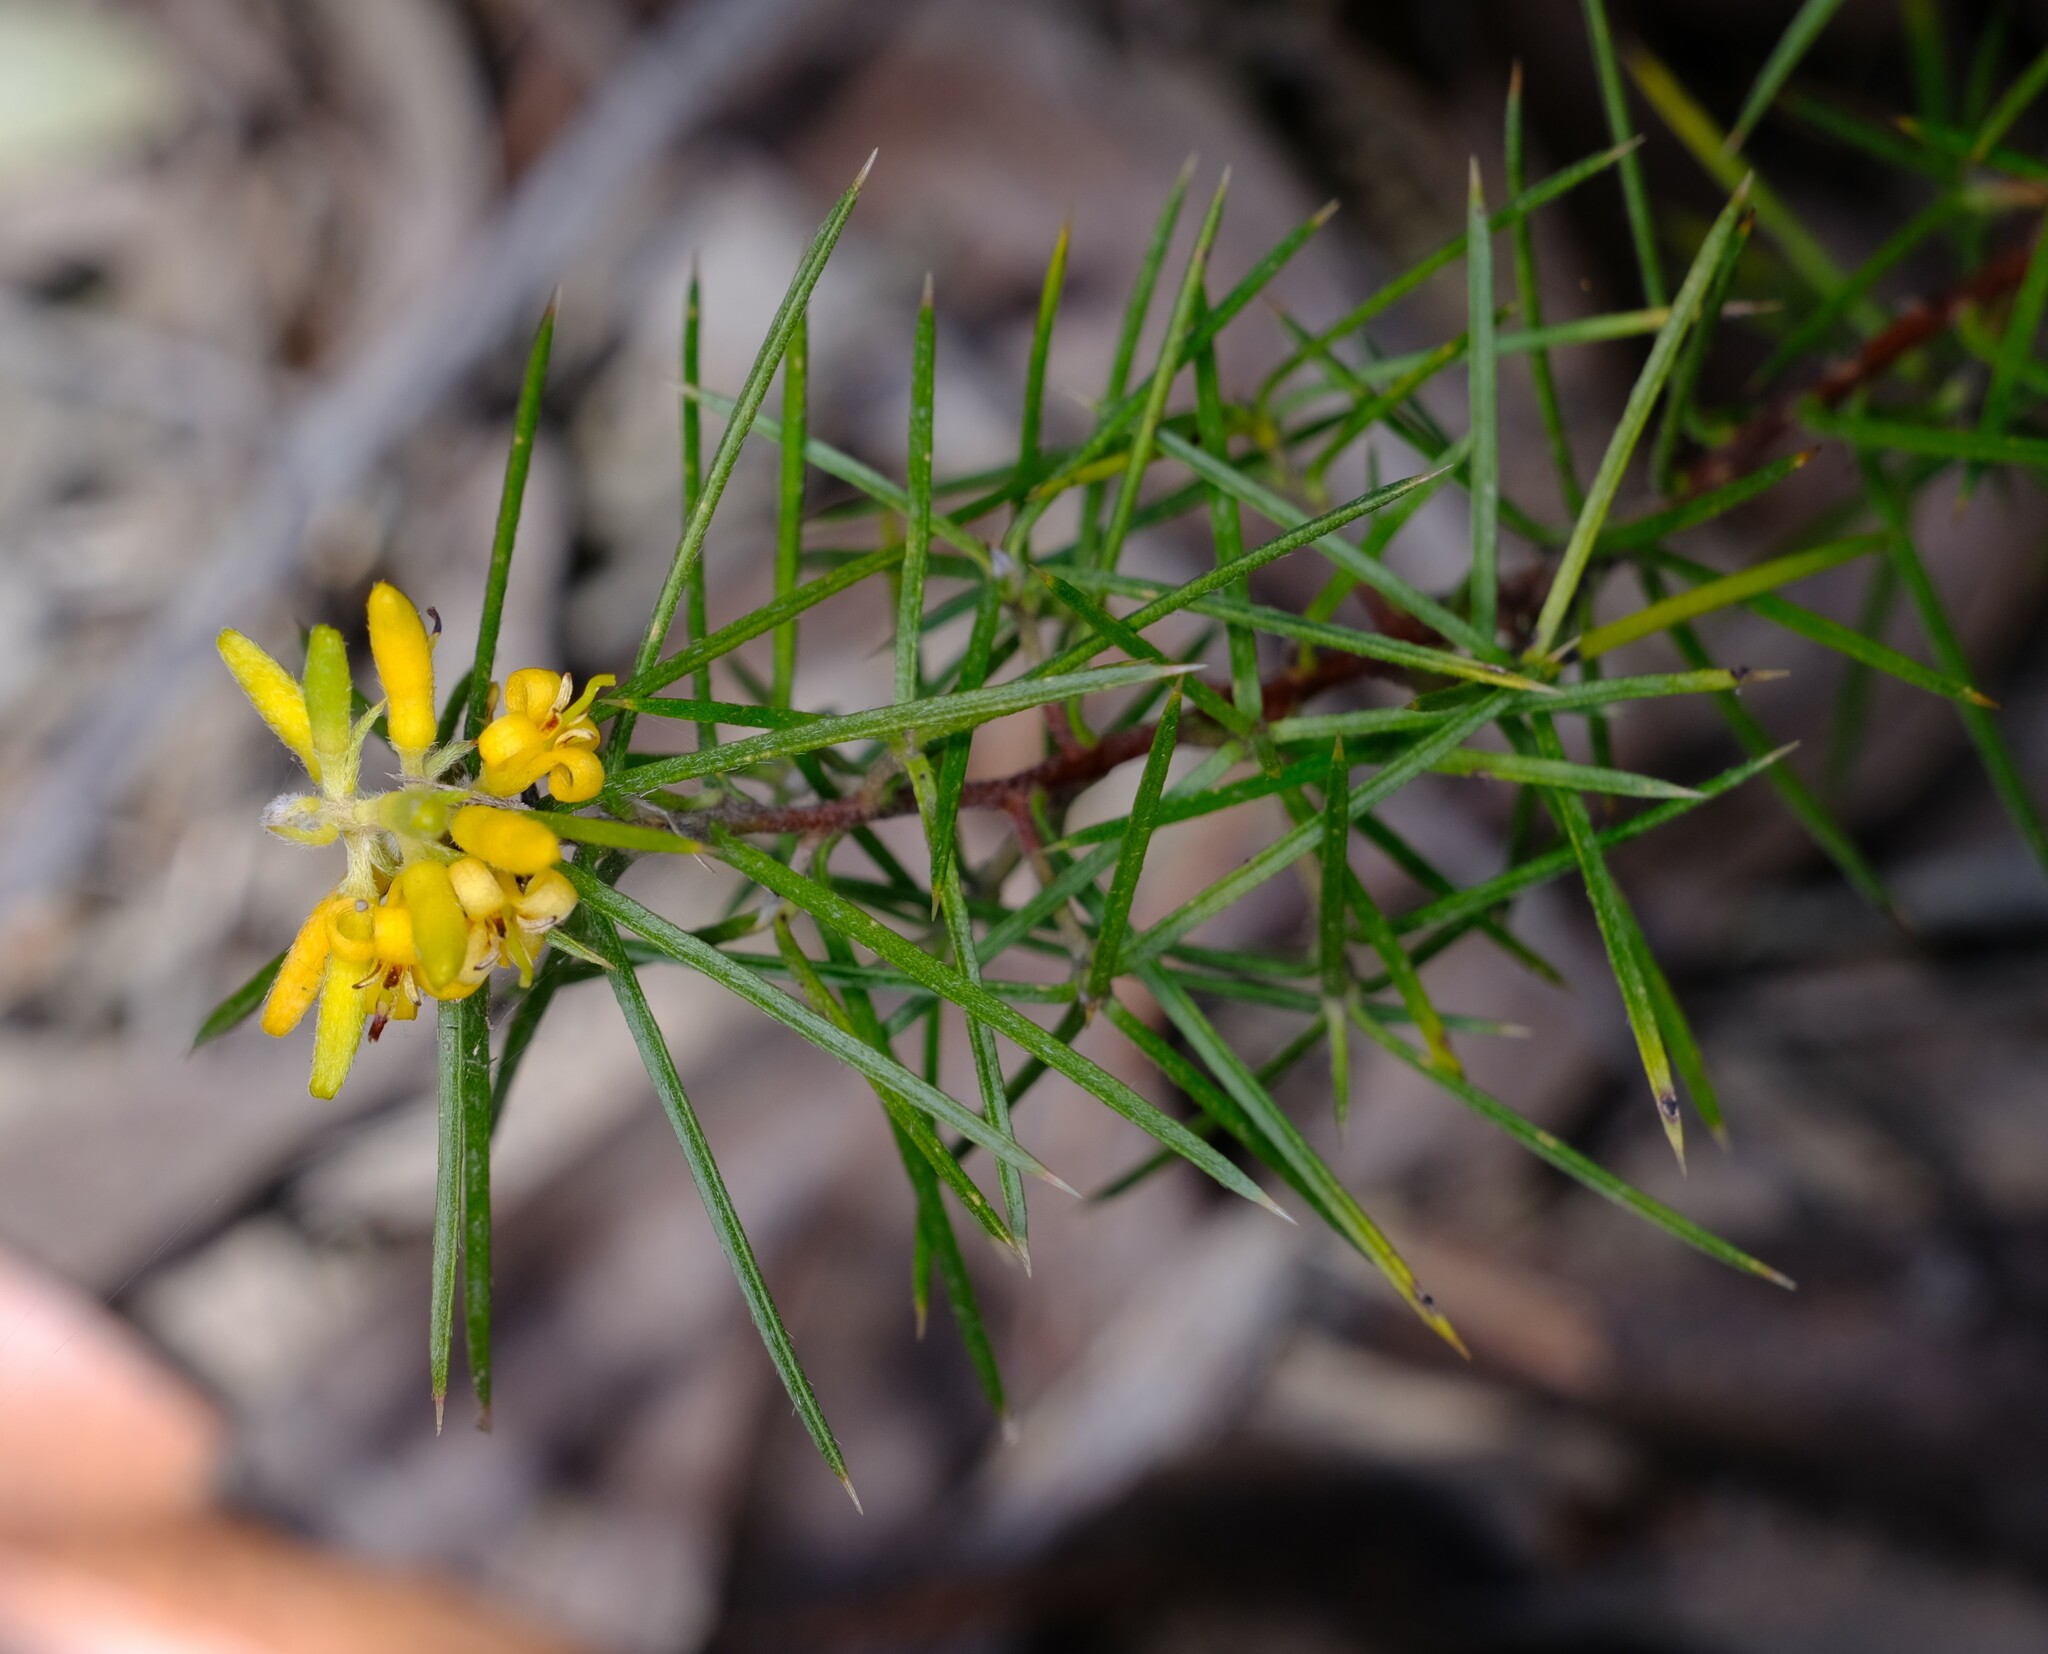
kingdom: Plantae
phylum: Tracheophyta
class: Magnoliopsida
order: Proteales
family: Proteaceae
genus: Persoonia
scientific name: Persoonia juniperina
